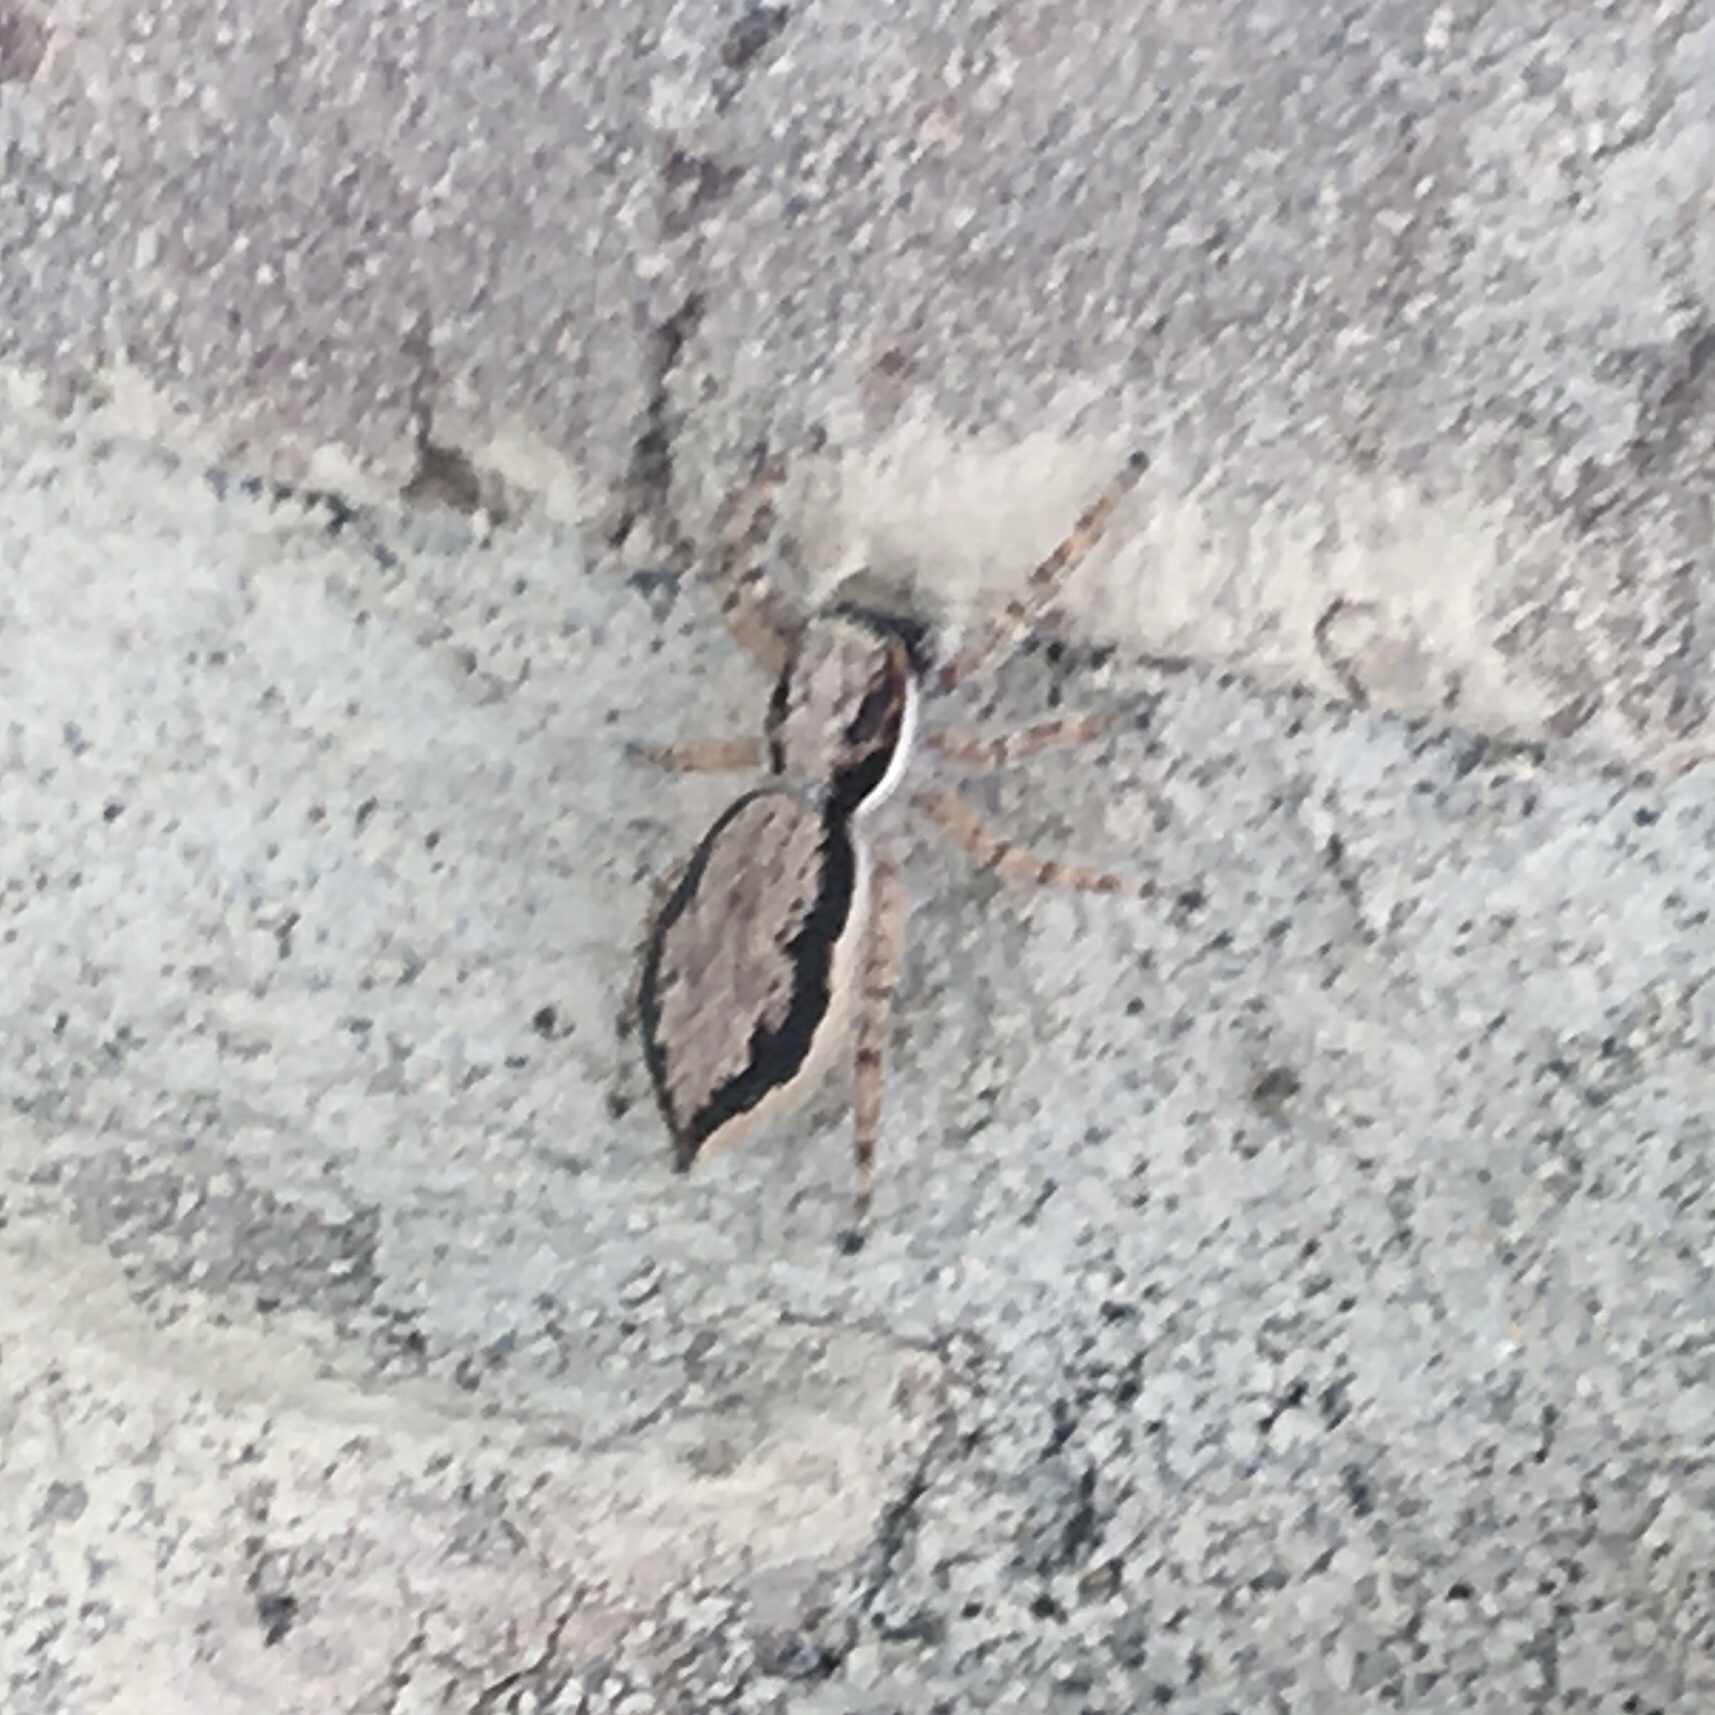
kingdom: Animalia
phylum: Arthropoda
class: Arachnida
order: Araneae
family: Salticidae
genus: Menemerus
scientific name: Menemerus bivittatus
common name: Gray wall jumper
